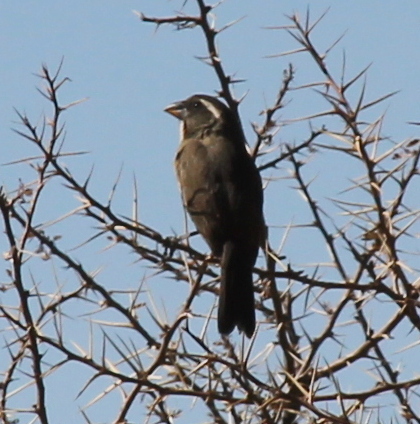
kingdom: Animalia
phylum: Chordata
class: Aves
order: Passeriformes
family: Thraupidae
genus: Saltator
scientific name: Saltator aurantiirostris
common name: Golden-billed saltator
